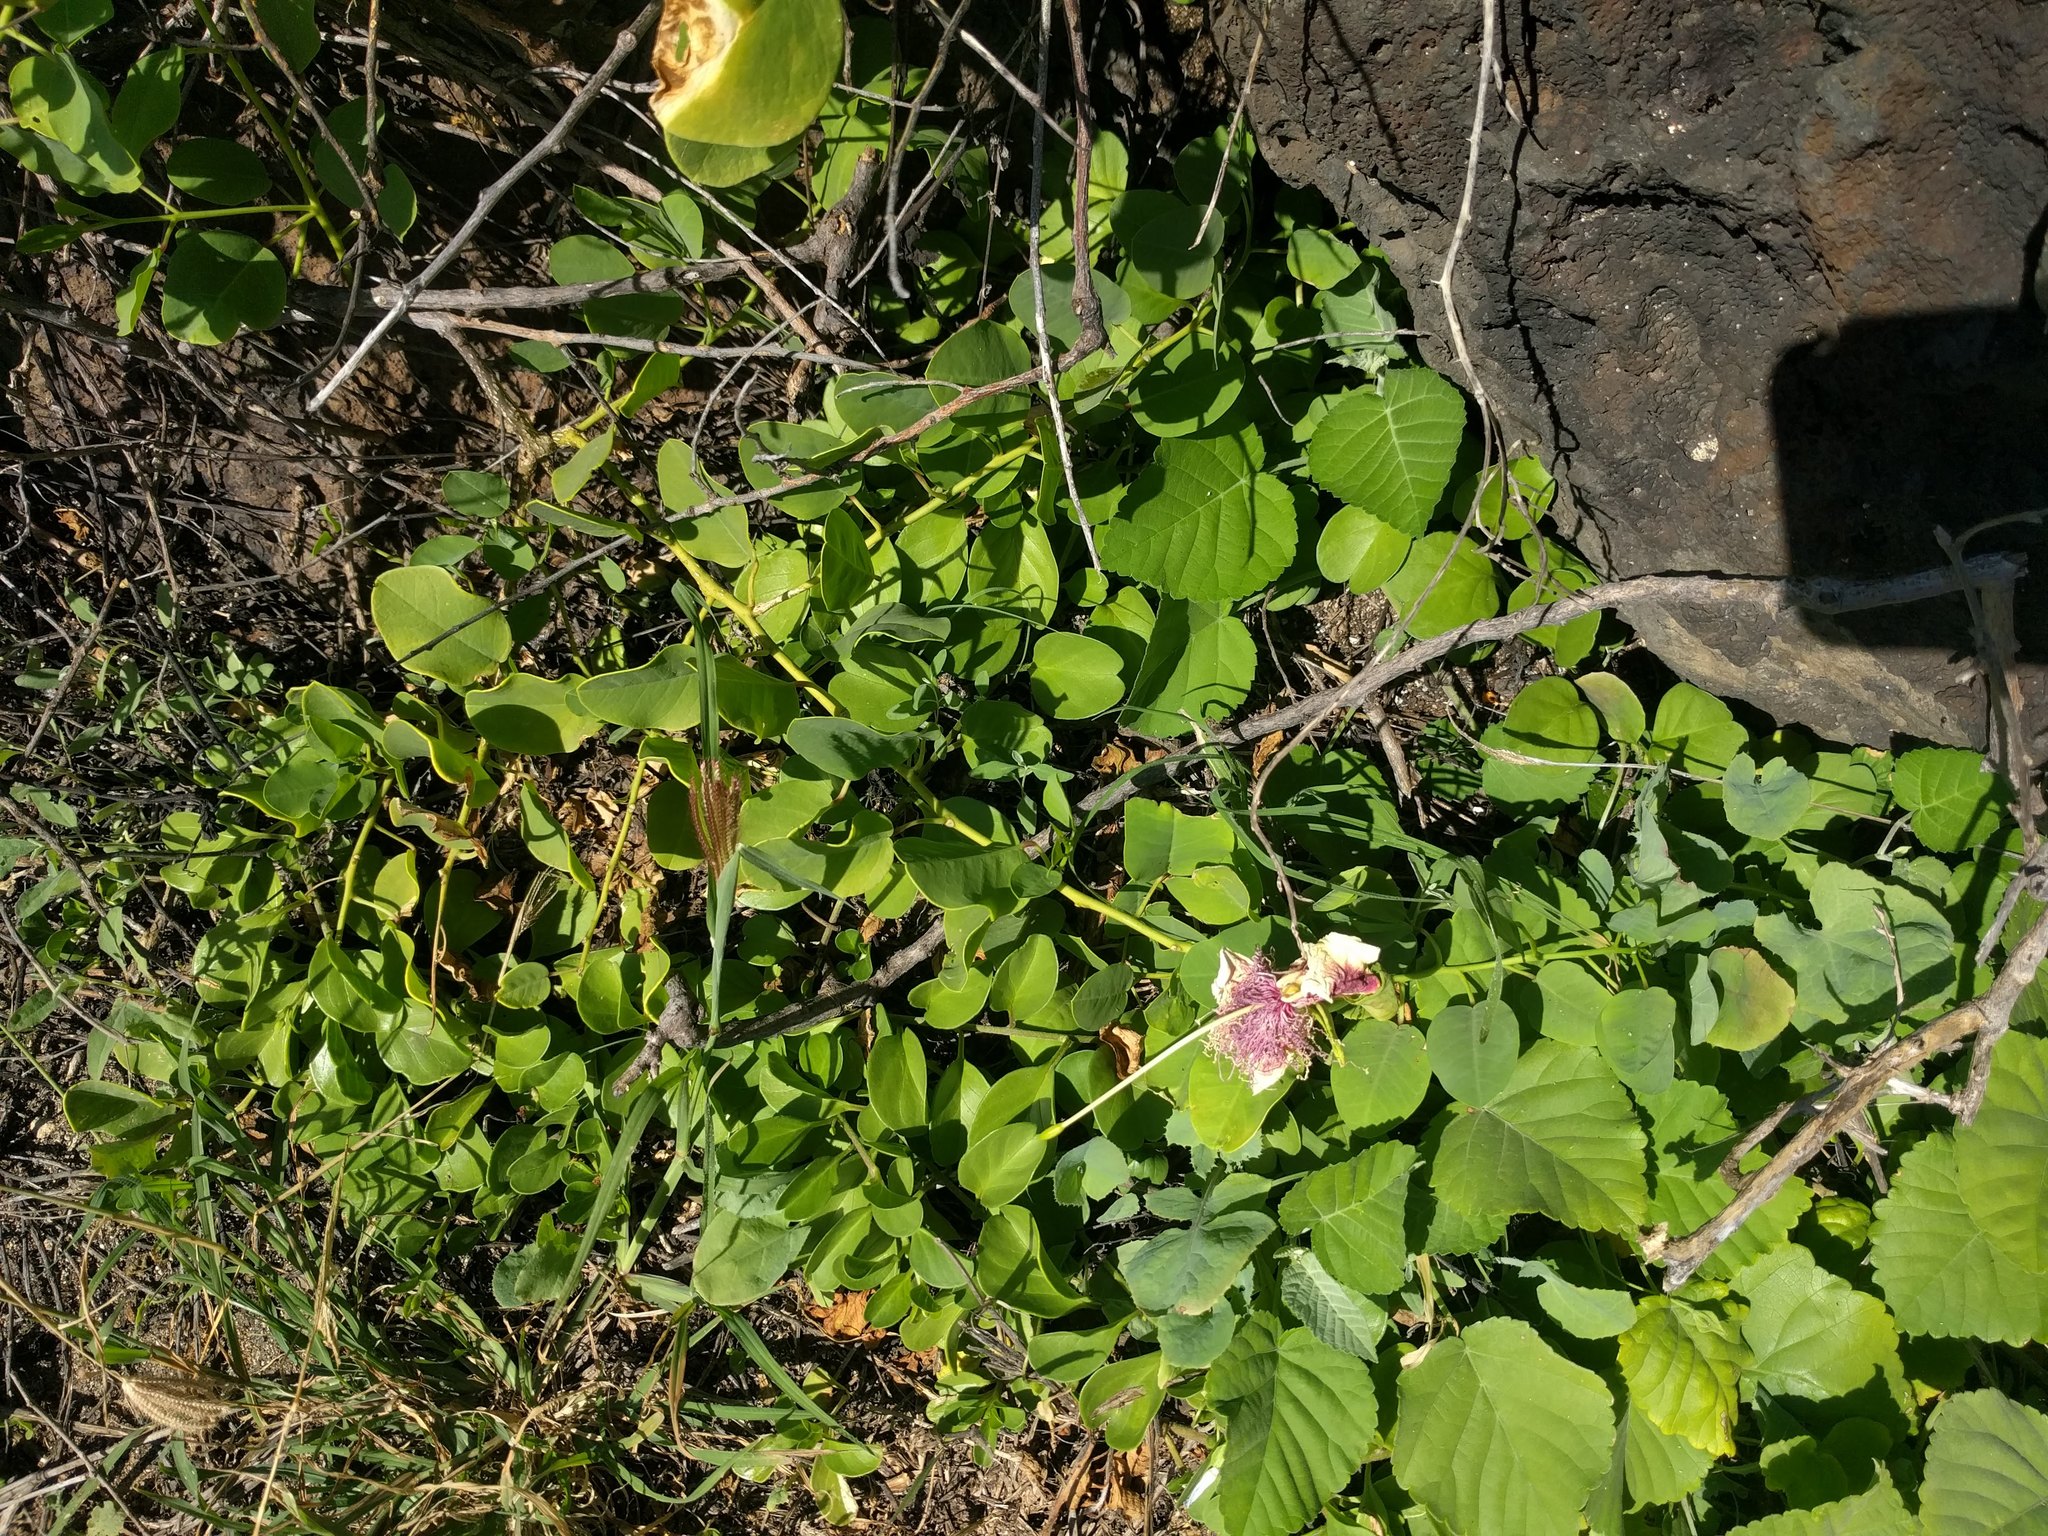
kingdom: Plantae
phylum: Tracheophyta
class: Magnoliopsida
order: Brassicales
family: Capparaceae
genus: Capparis
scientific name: Capparis spinosa
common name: Caper
